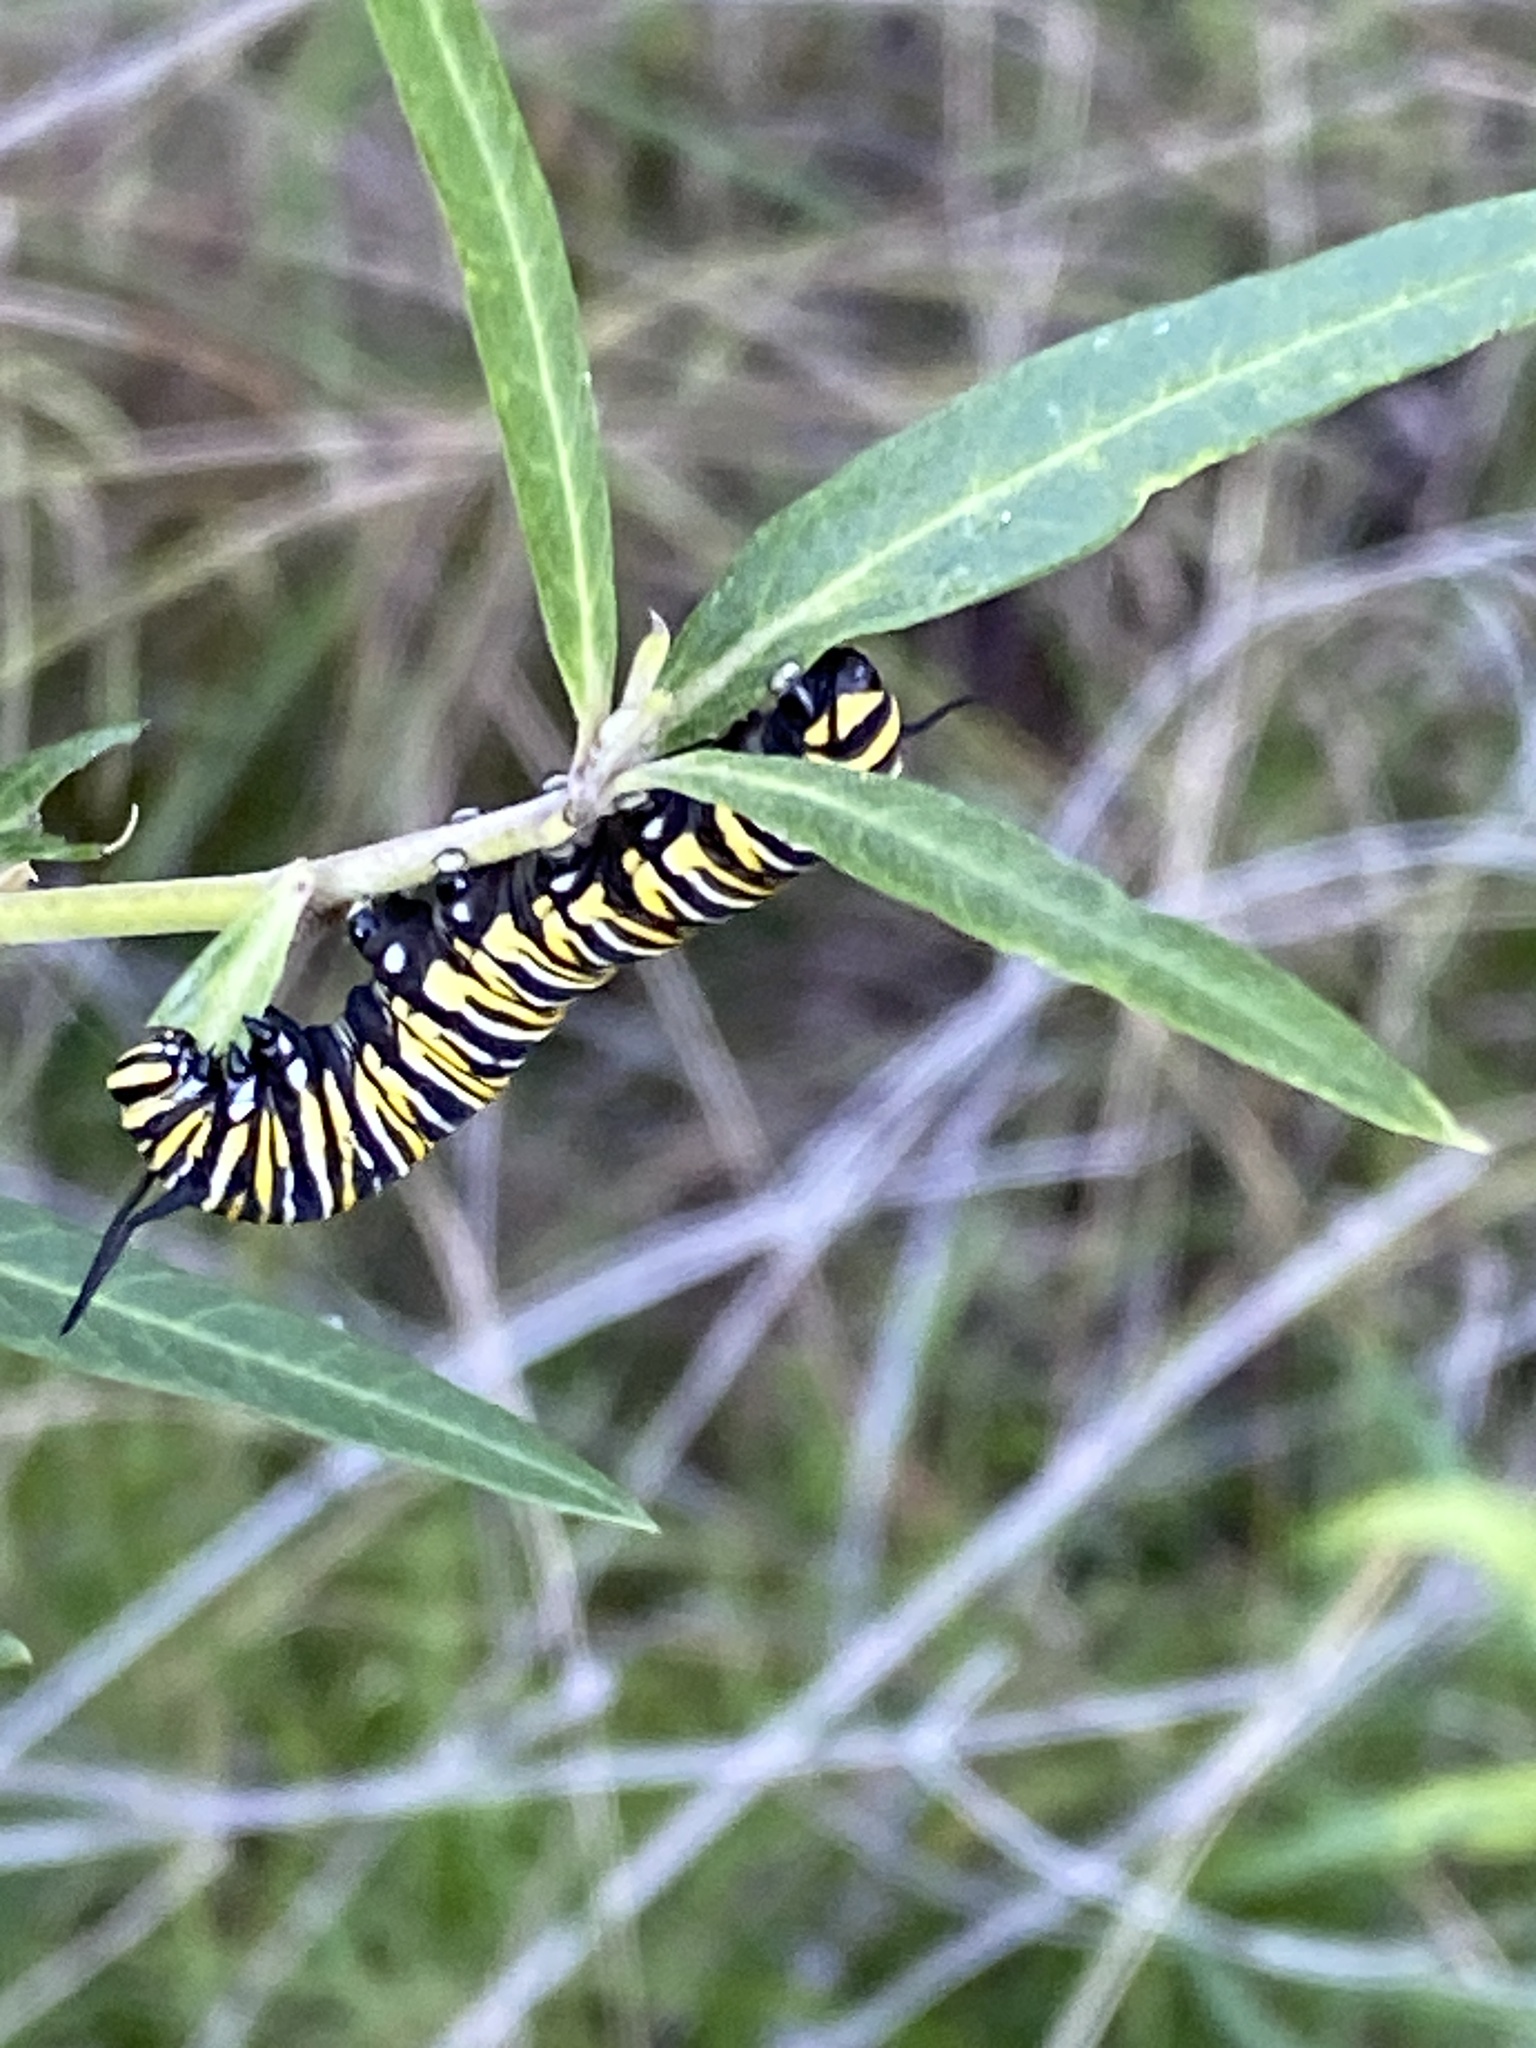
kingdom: Animalia
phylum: Arthropoda
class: Insecta
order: Lepidoptera
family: Nymphalidae
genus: Danaus
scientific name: Danaus plexippus
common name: Monarch
